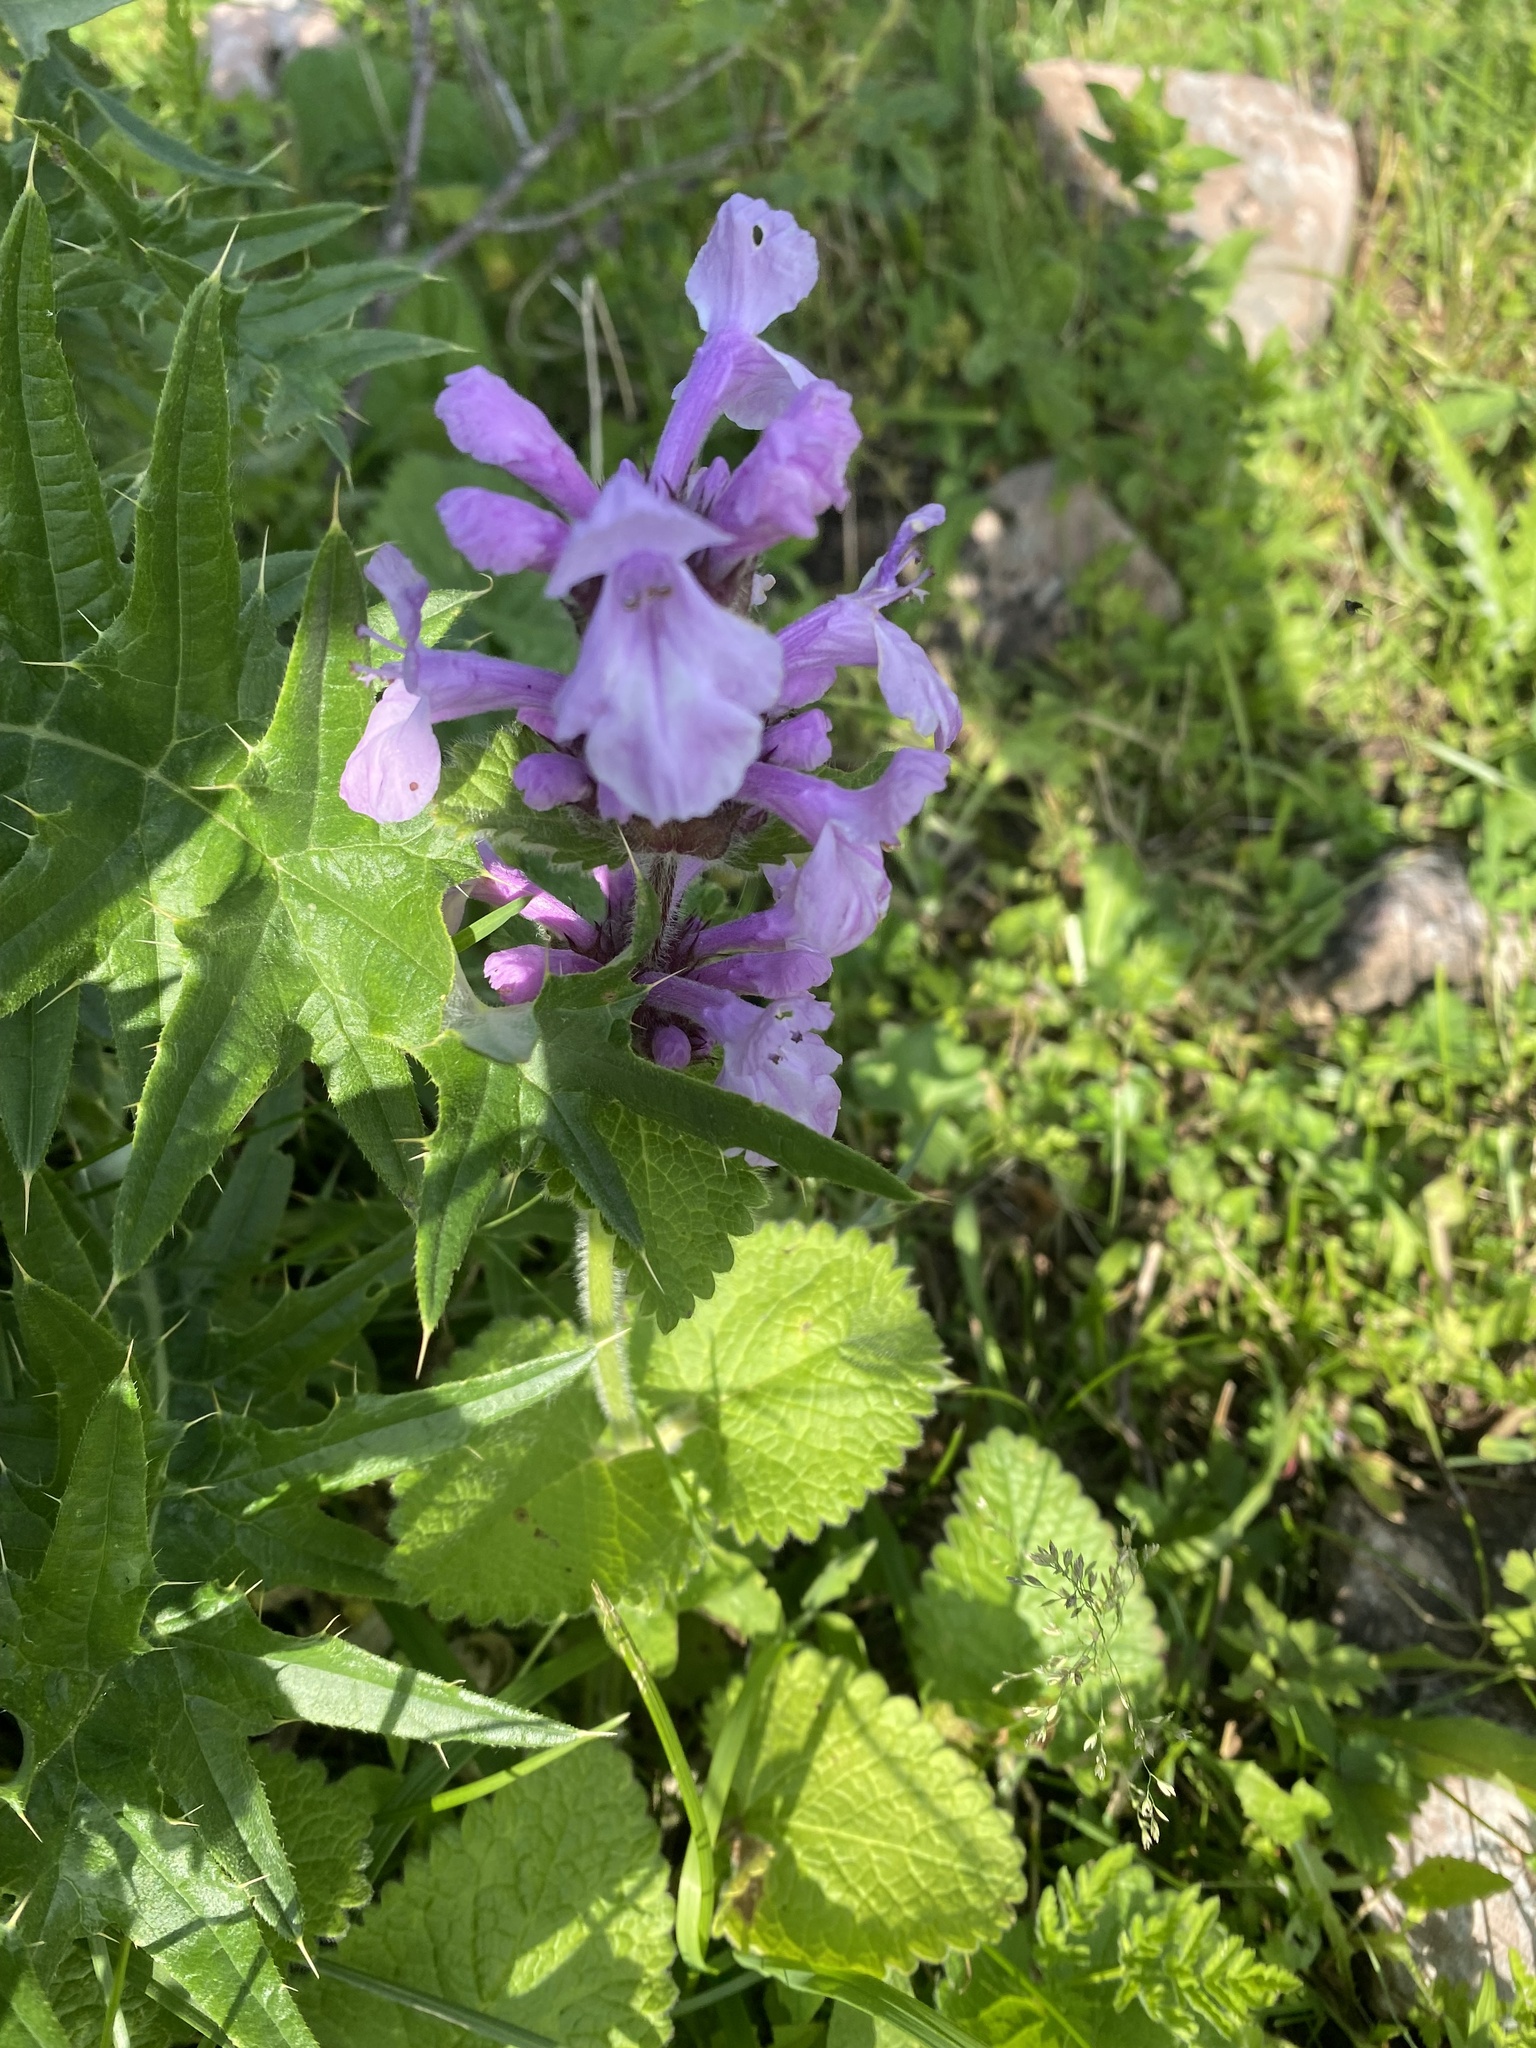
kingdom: Plantae
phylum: Tracheophyta
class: Magnoliopsida
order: Lamiales
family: Lamiaceae
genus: Betonica
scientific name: Betonica macrantha
